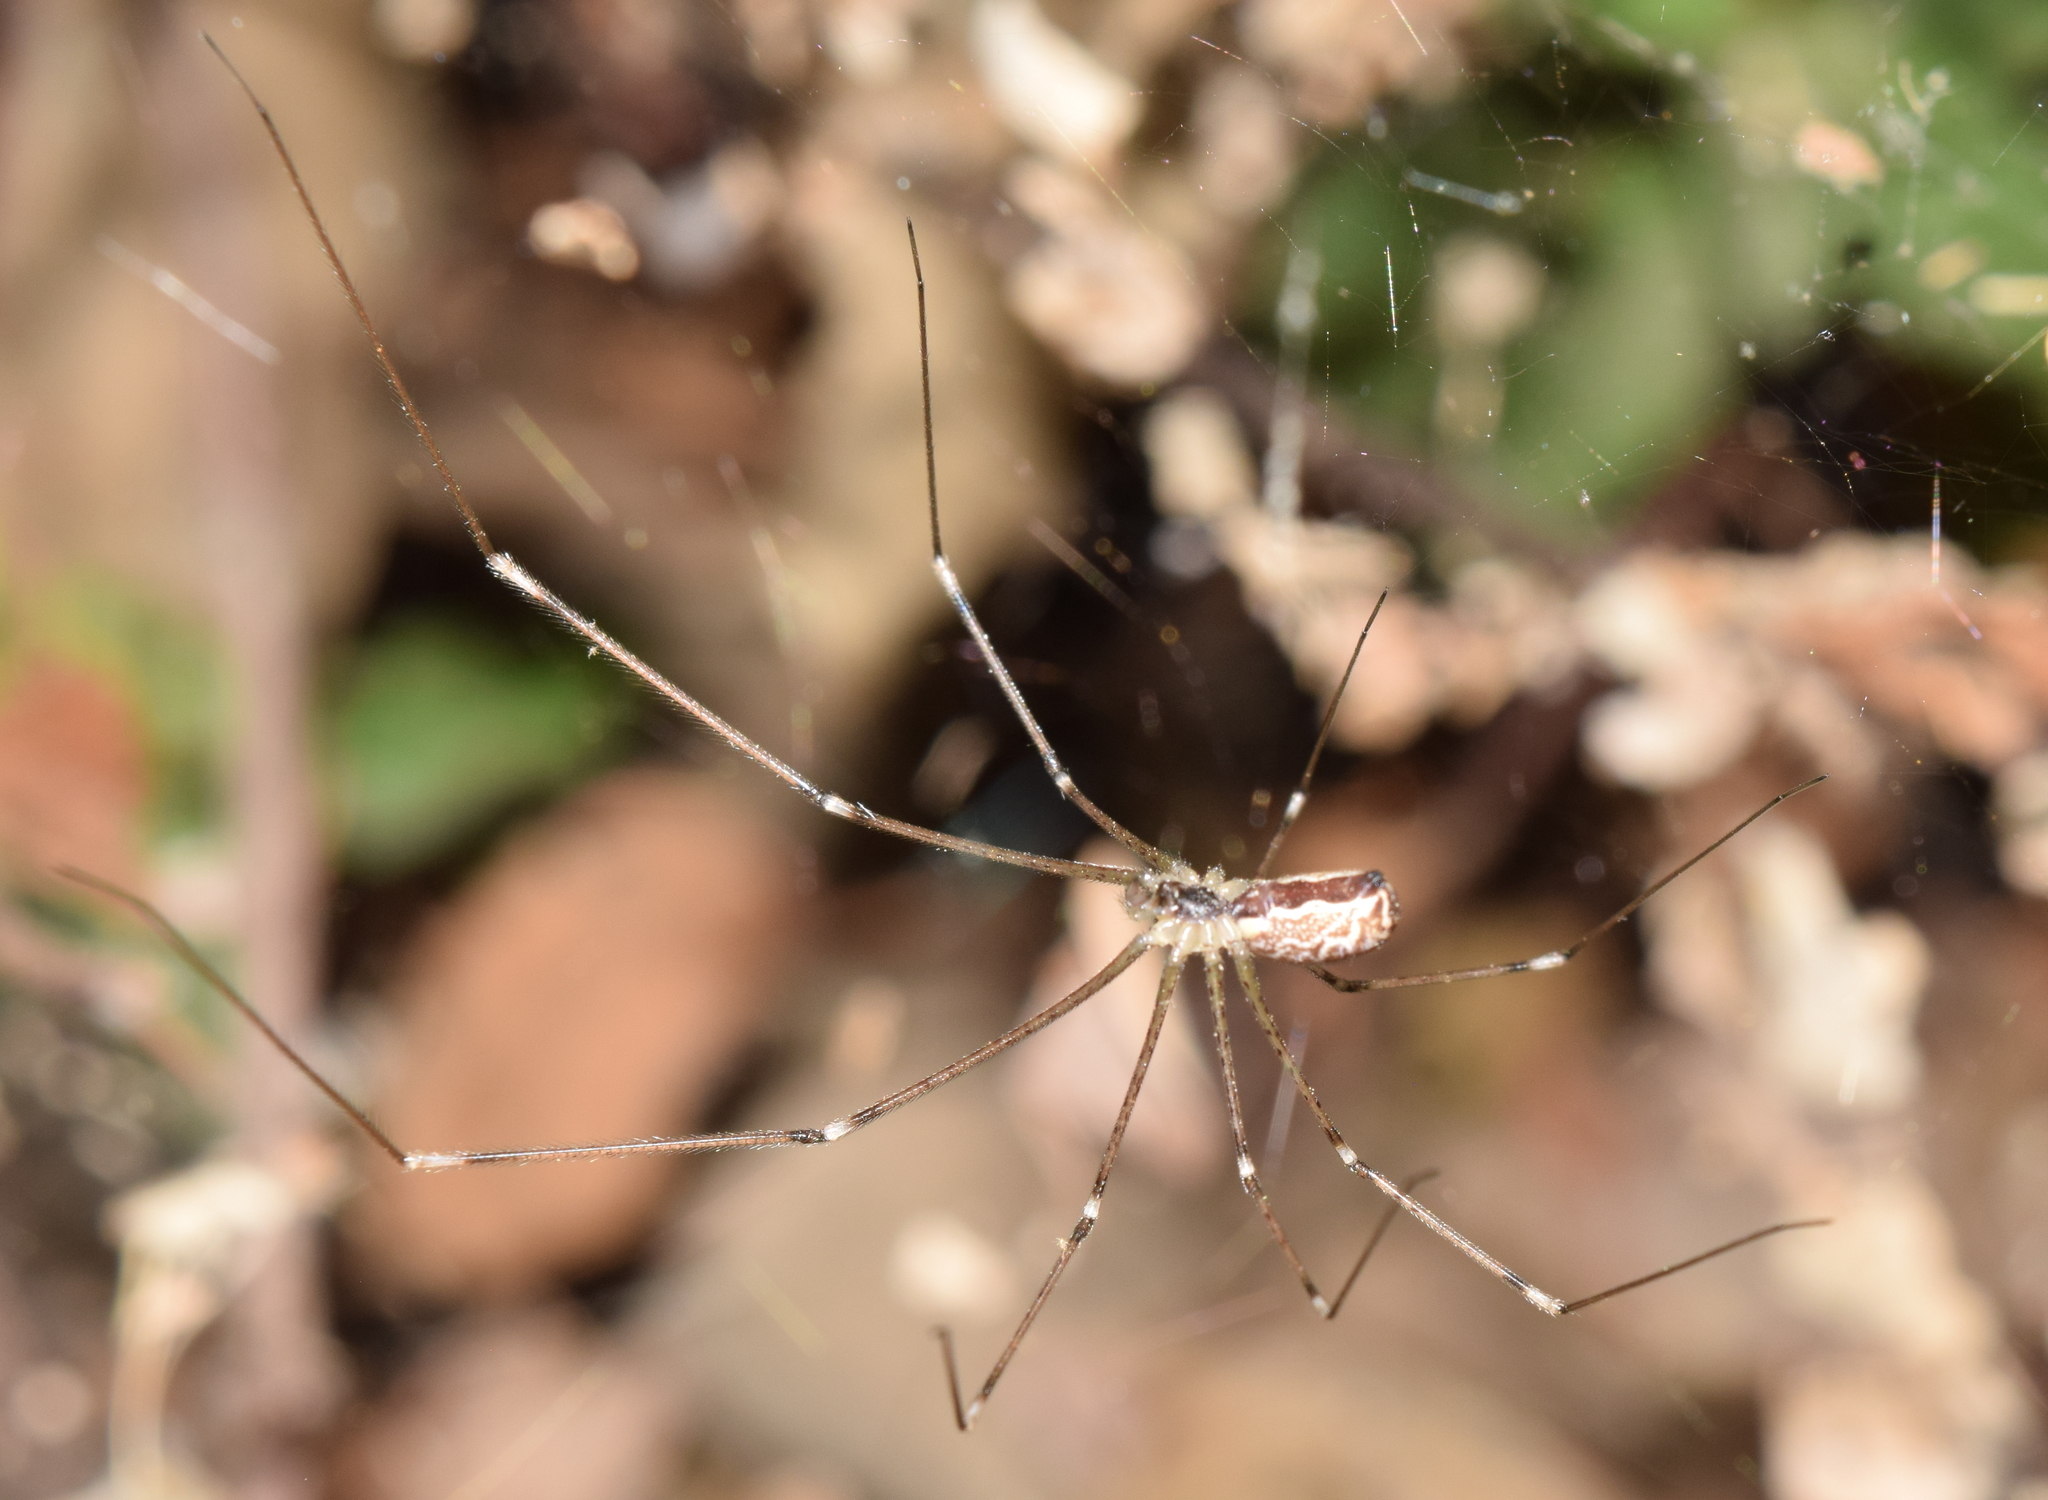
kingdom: Animalia
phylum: Arthropoda
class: Arachnida
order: Araneae
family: Pholcidae
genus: Holocnemus
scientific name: Holocnemus pluchei
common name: Marbled cellar spider
